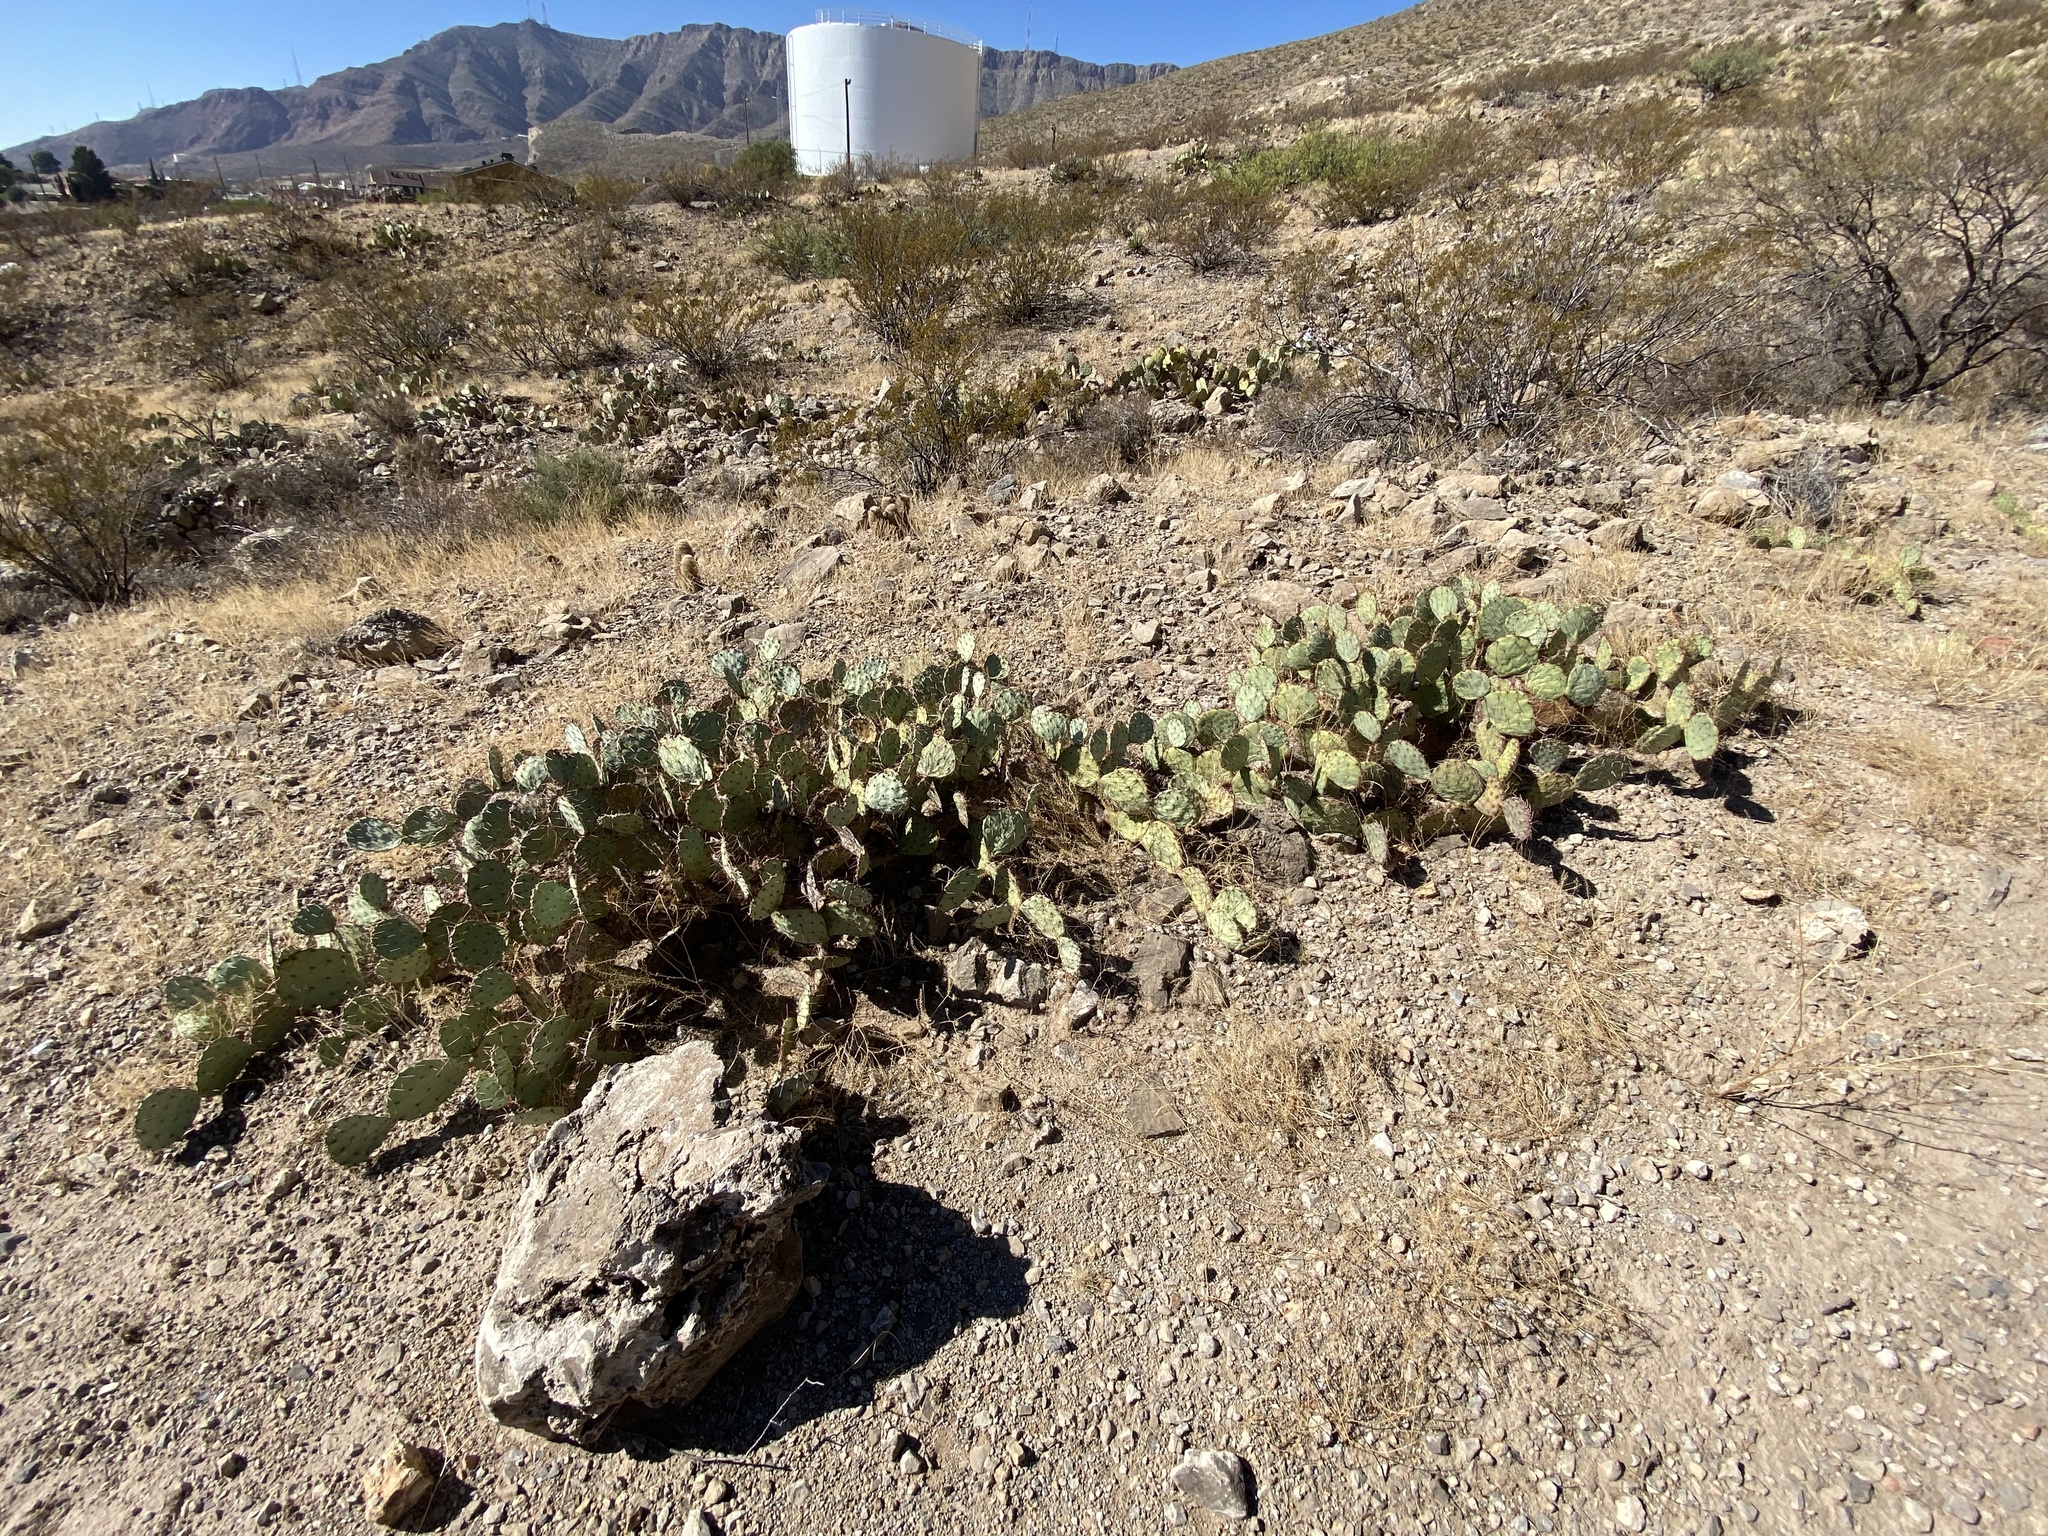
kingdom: Plantae
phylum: Tracheophyta
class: Magnoliopsida
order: Caryophyllales
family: Cactaceae
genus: Opuntia
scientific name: Opuntia engelmannii
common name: Cactus-apple
